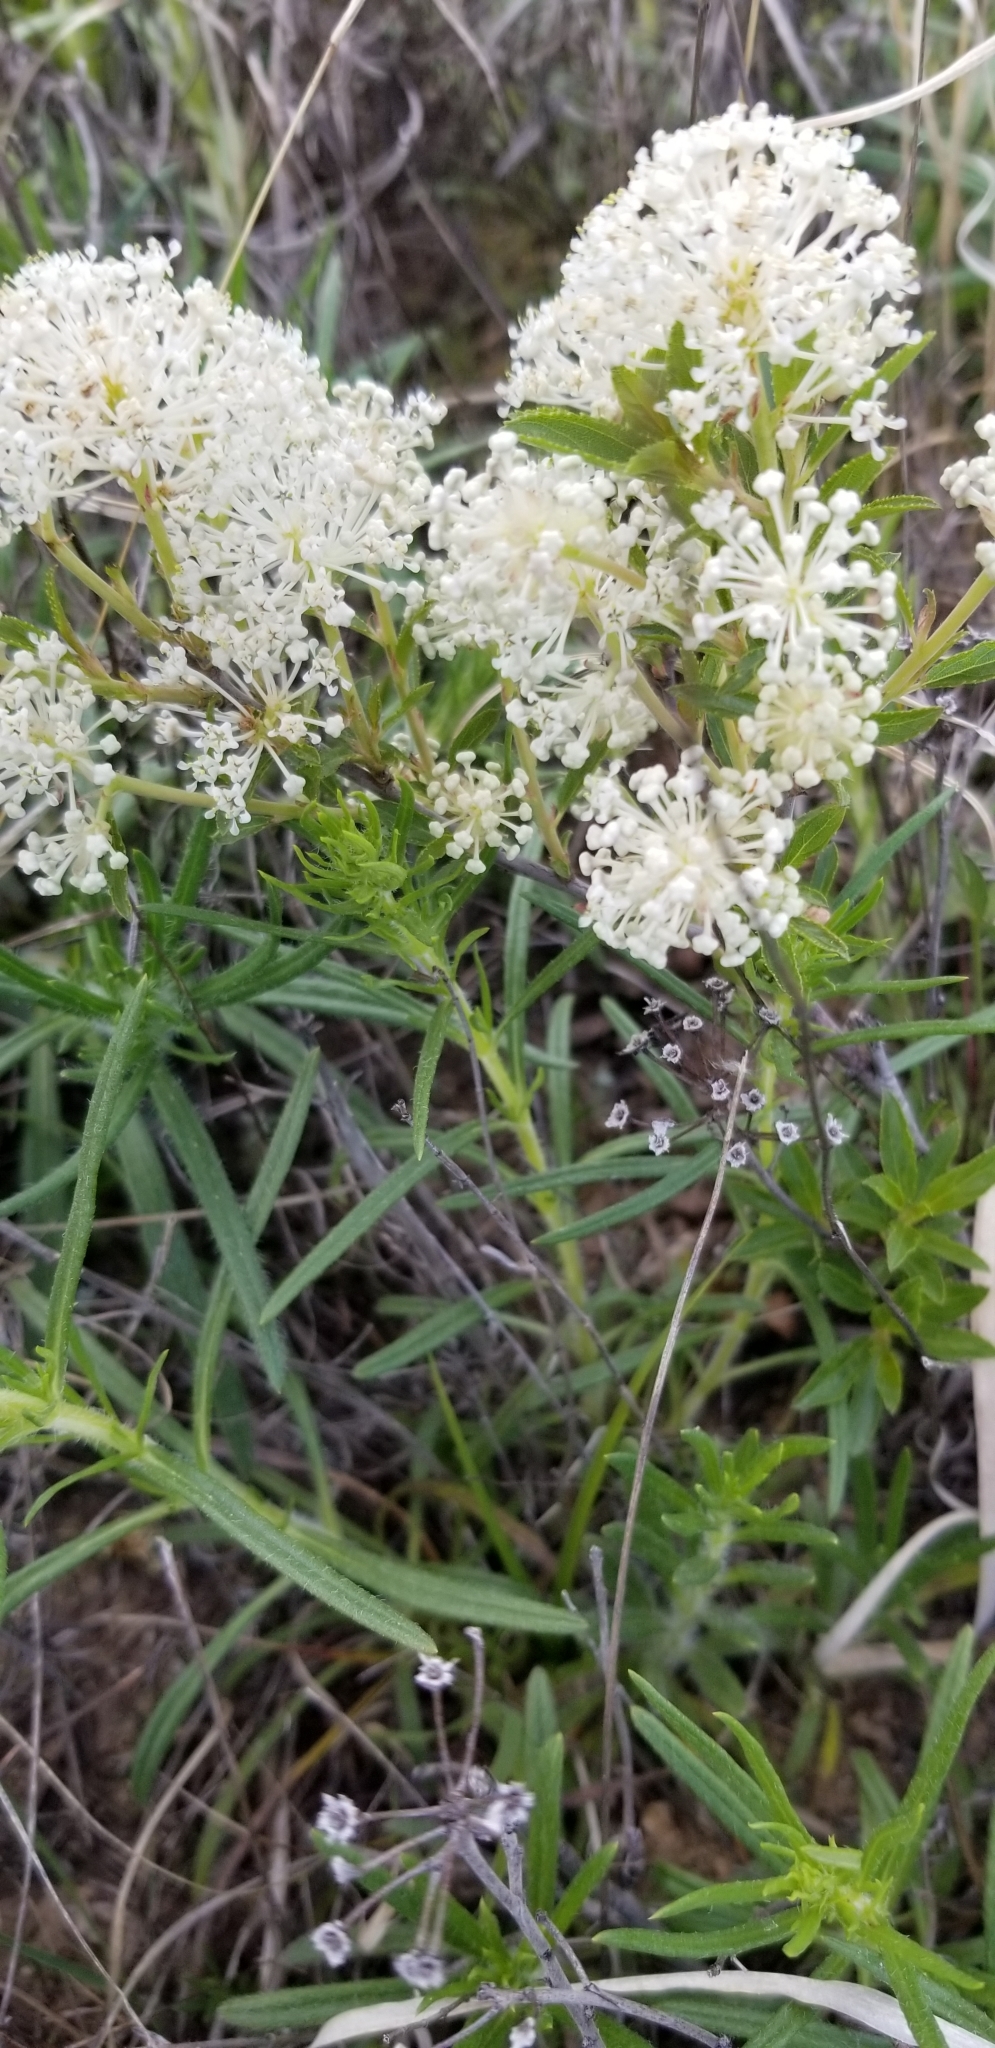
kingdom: Plantae
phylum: Tracheophyta
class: Magnoliopsida
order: Rosales
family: Rhamnaceae
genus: Ceanothus
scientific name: Ceanothus herbaceus
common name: Inland ceanothus
